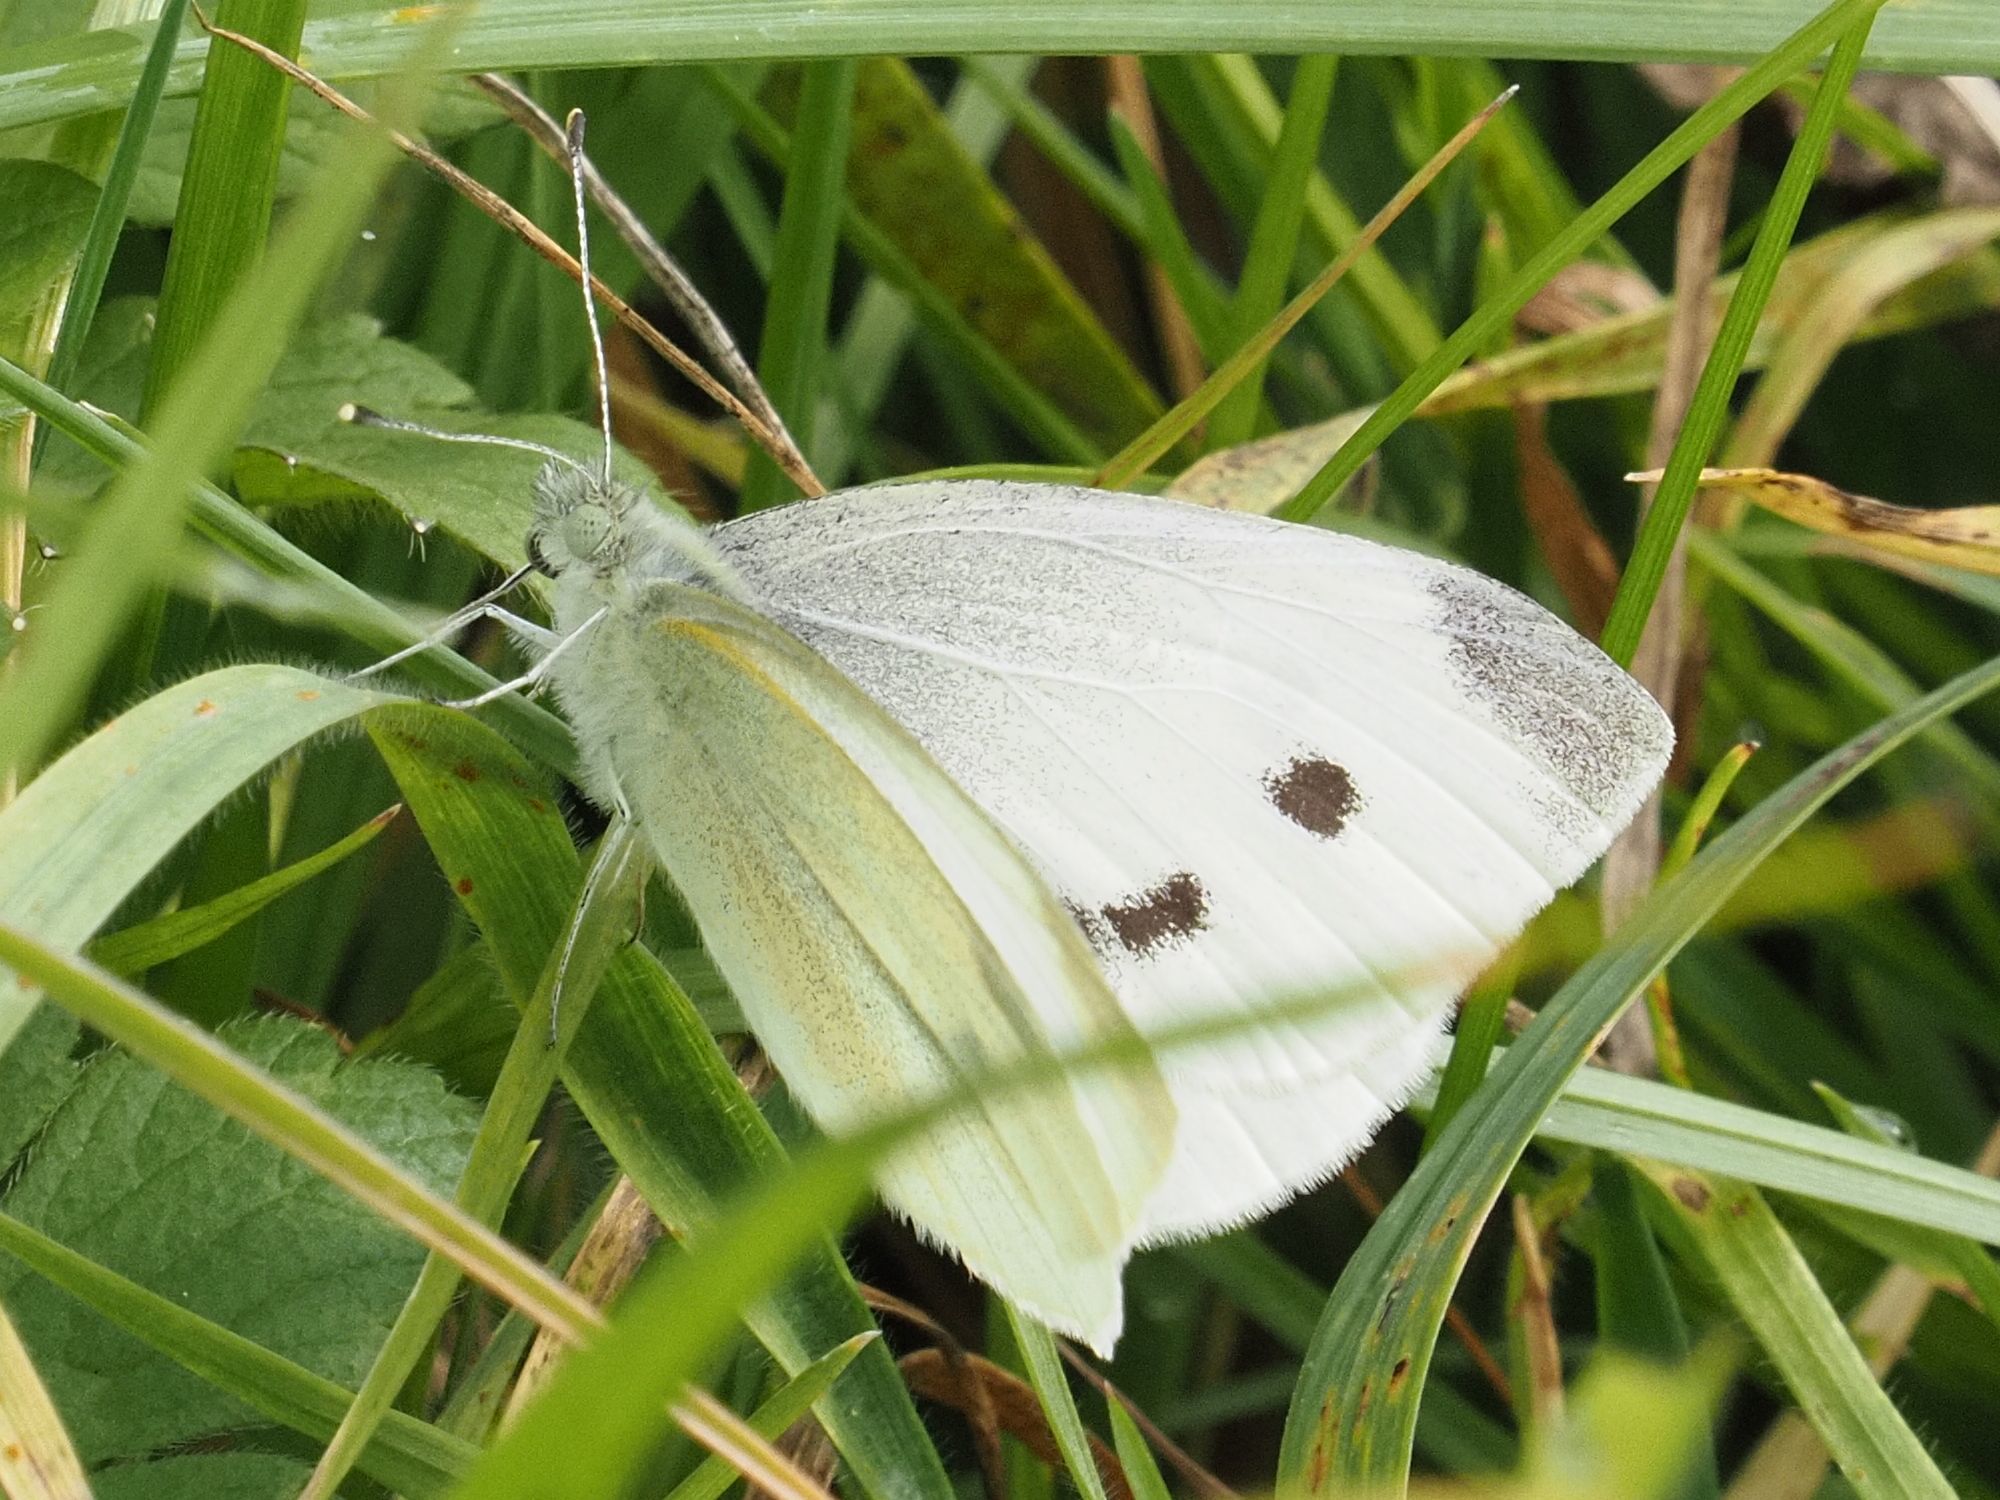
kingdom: Animalia
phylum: Arthropoda
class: Insecta
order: Lepidoptera
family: Pieridae
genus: Pieris
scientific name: Pieris rapae
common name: Small white
